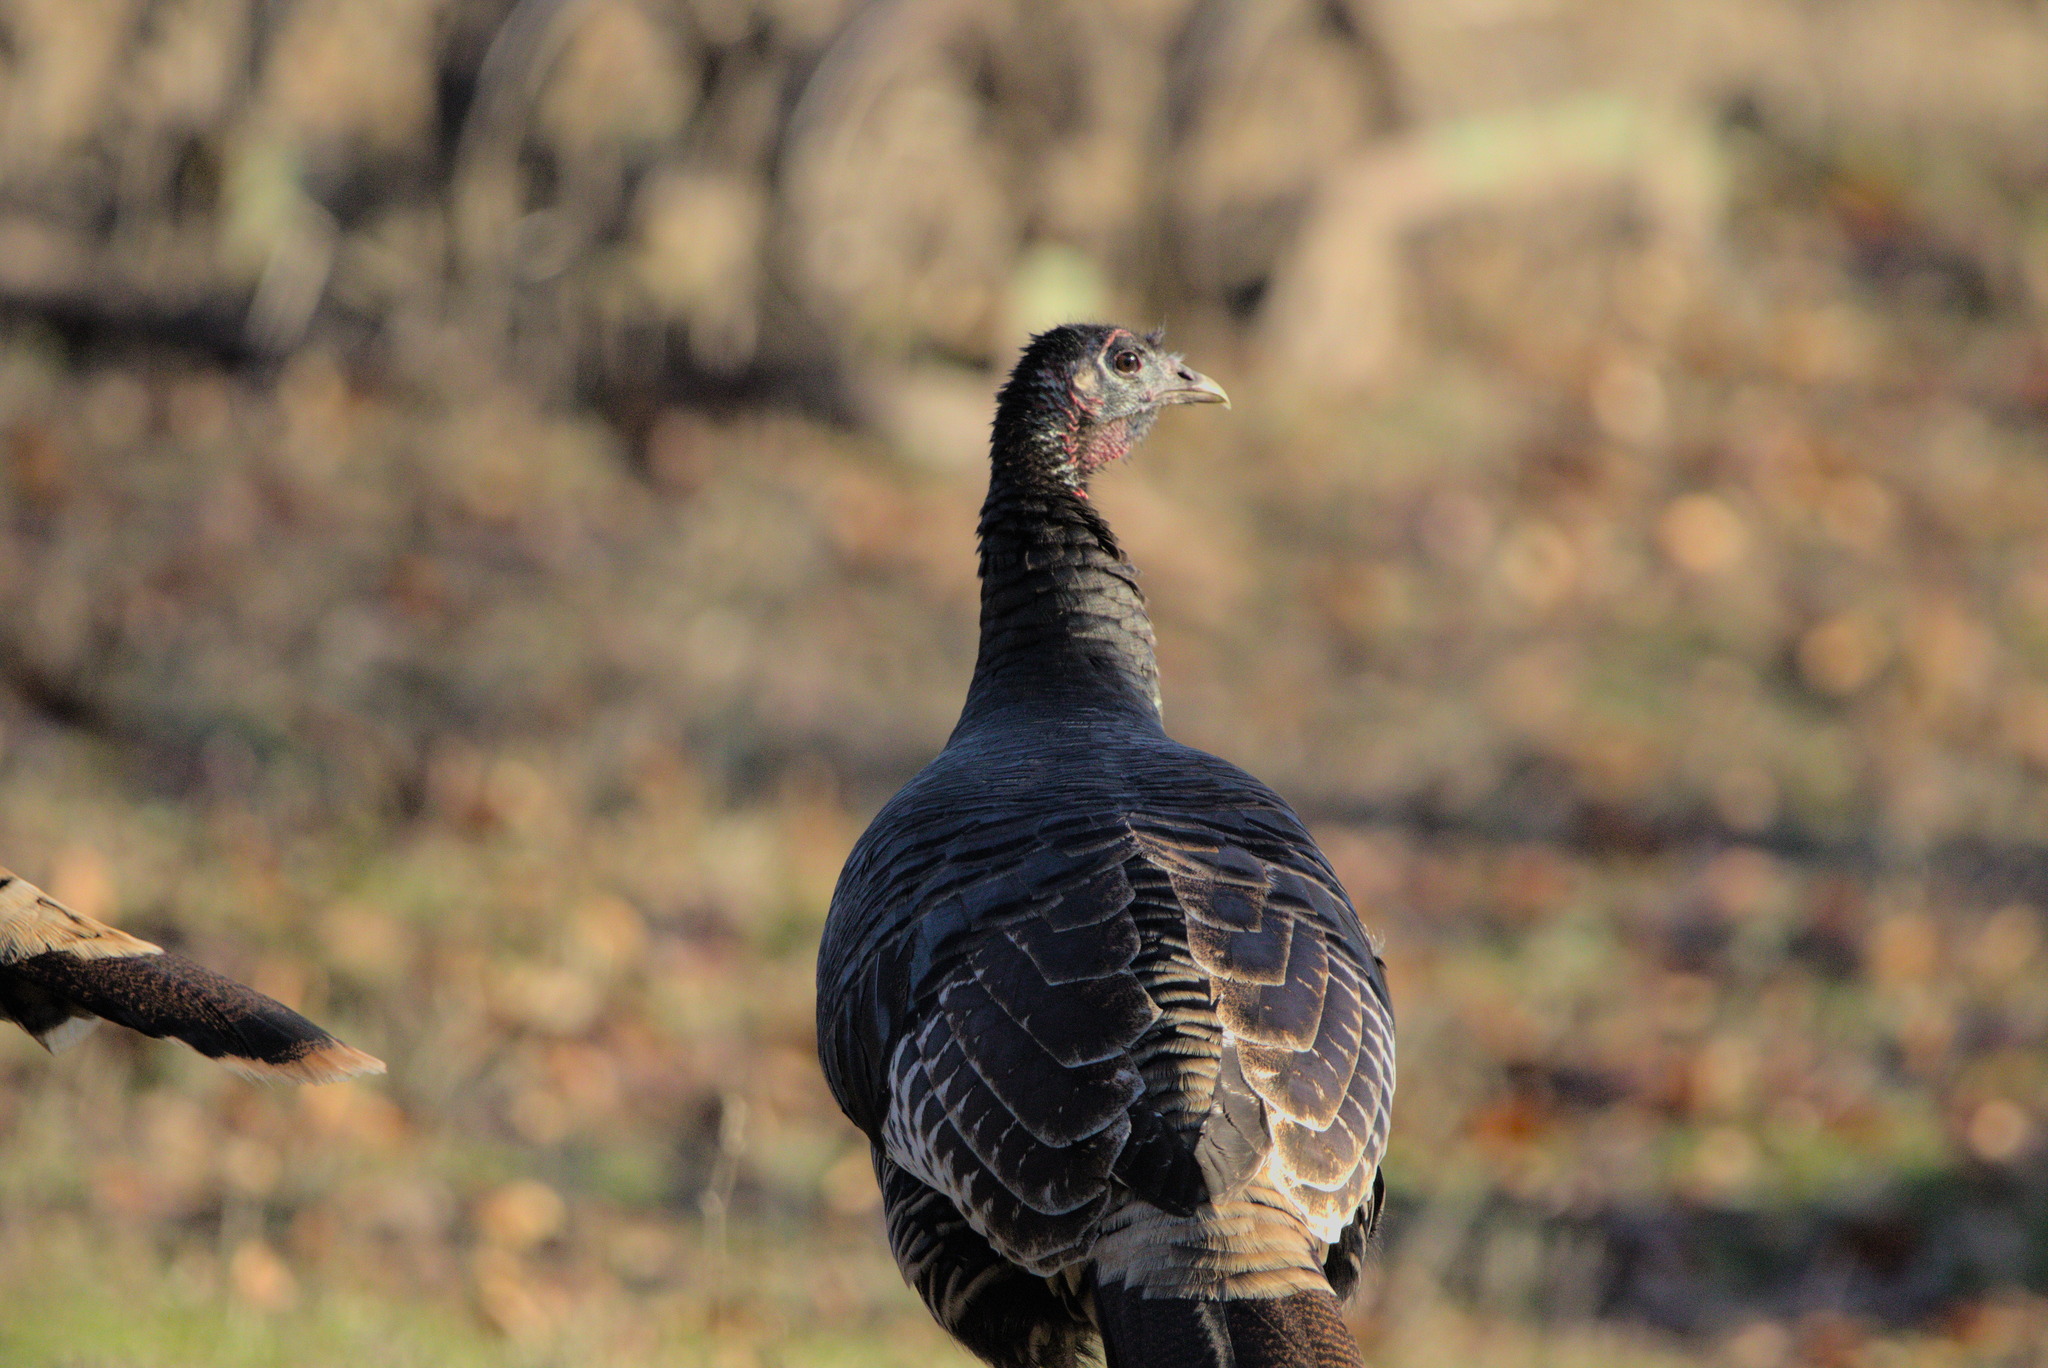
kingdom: Animalia
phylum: Chordata
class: Aves
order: Galliformes
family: Phasianidae
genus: Meleagris
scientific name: Meleagris gallopavo
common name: Wild turkey
